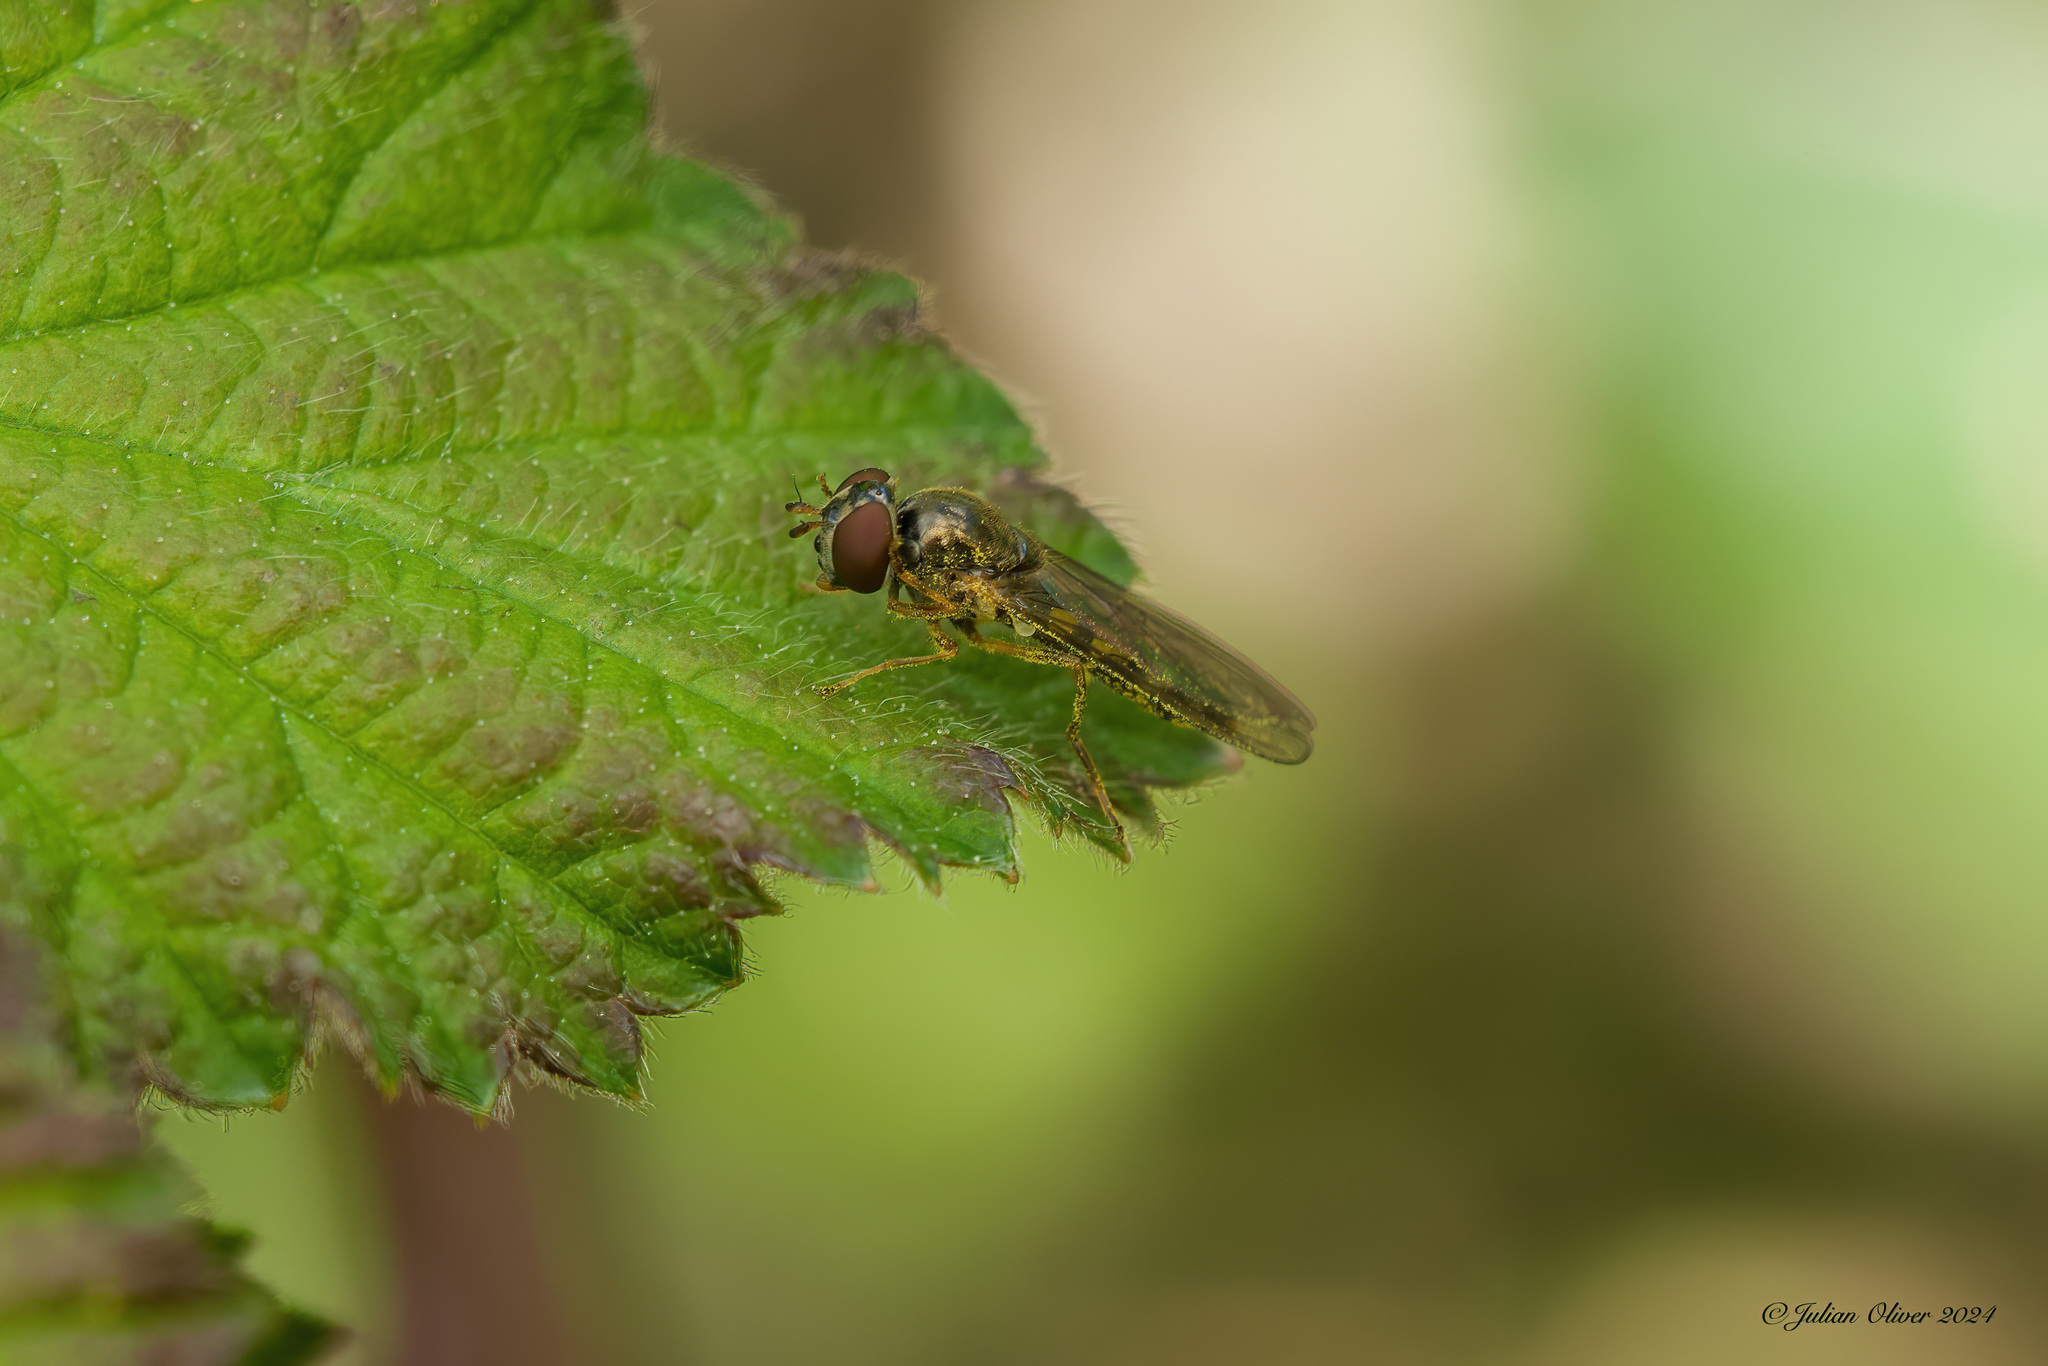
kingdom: Animalia
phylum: Arthropoda
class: Insecta
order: Diptera
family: Syrphidae
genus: Melanostoma
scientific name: Melanostoma scalare
